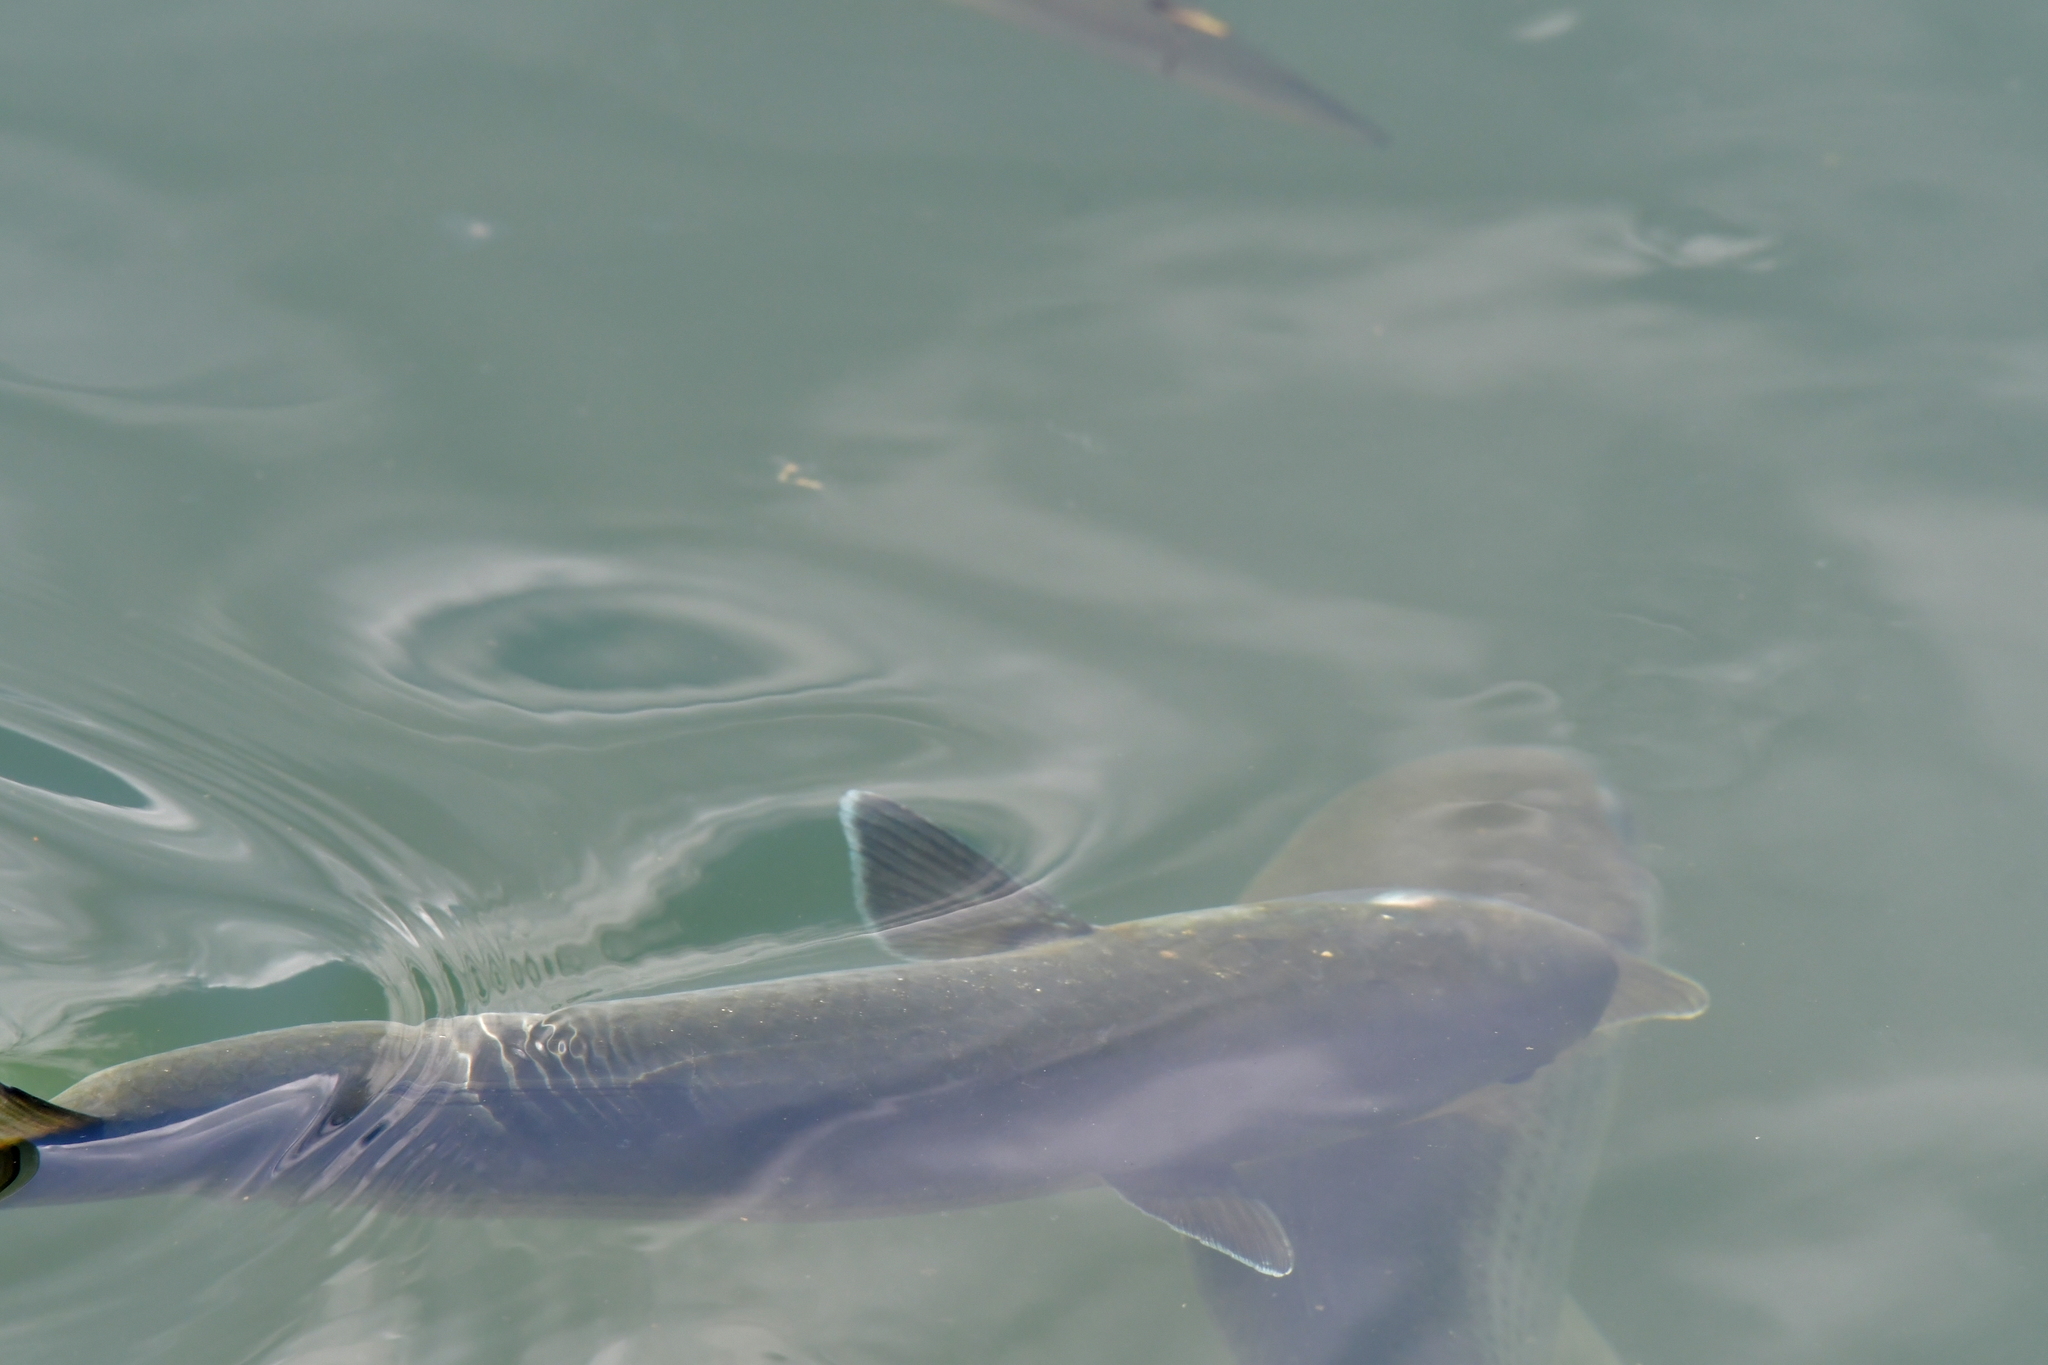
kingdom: Animalia
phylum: Chordata
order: Mugiliformes
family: Mugilidae
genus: Mugil
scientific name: Mugil cephalus
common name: Grey mullet
